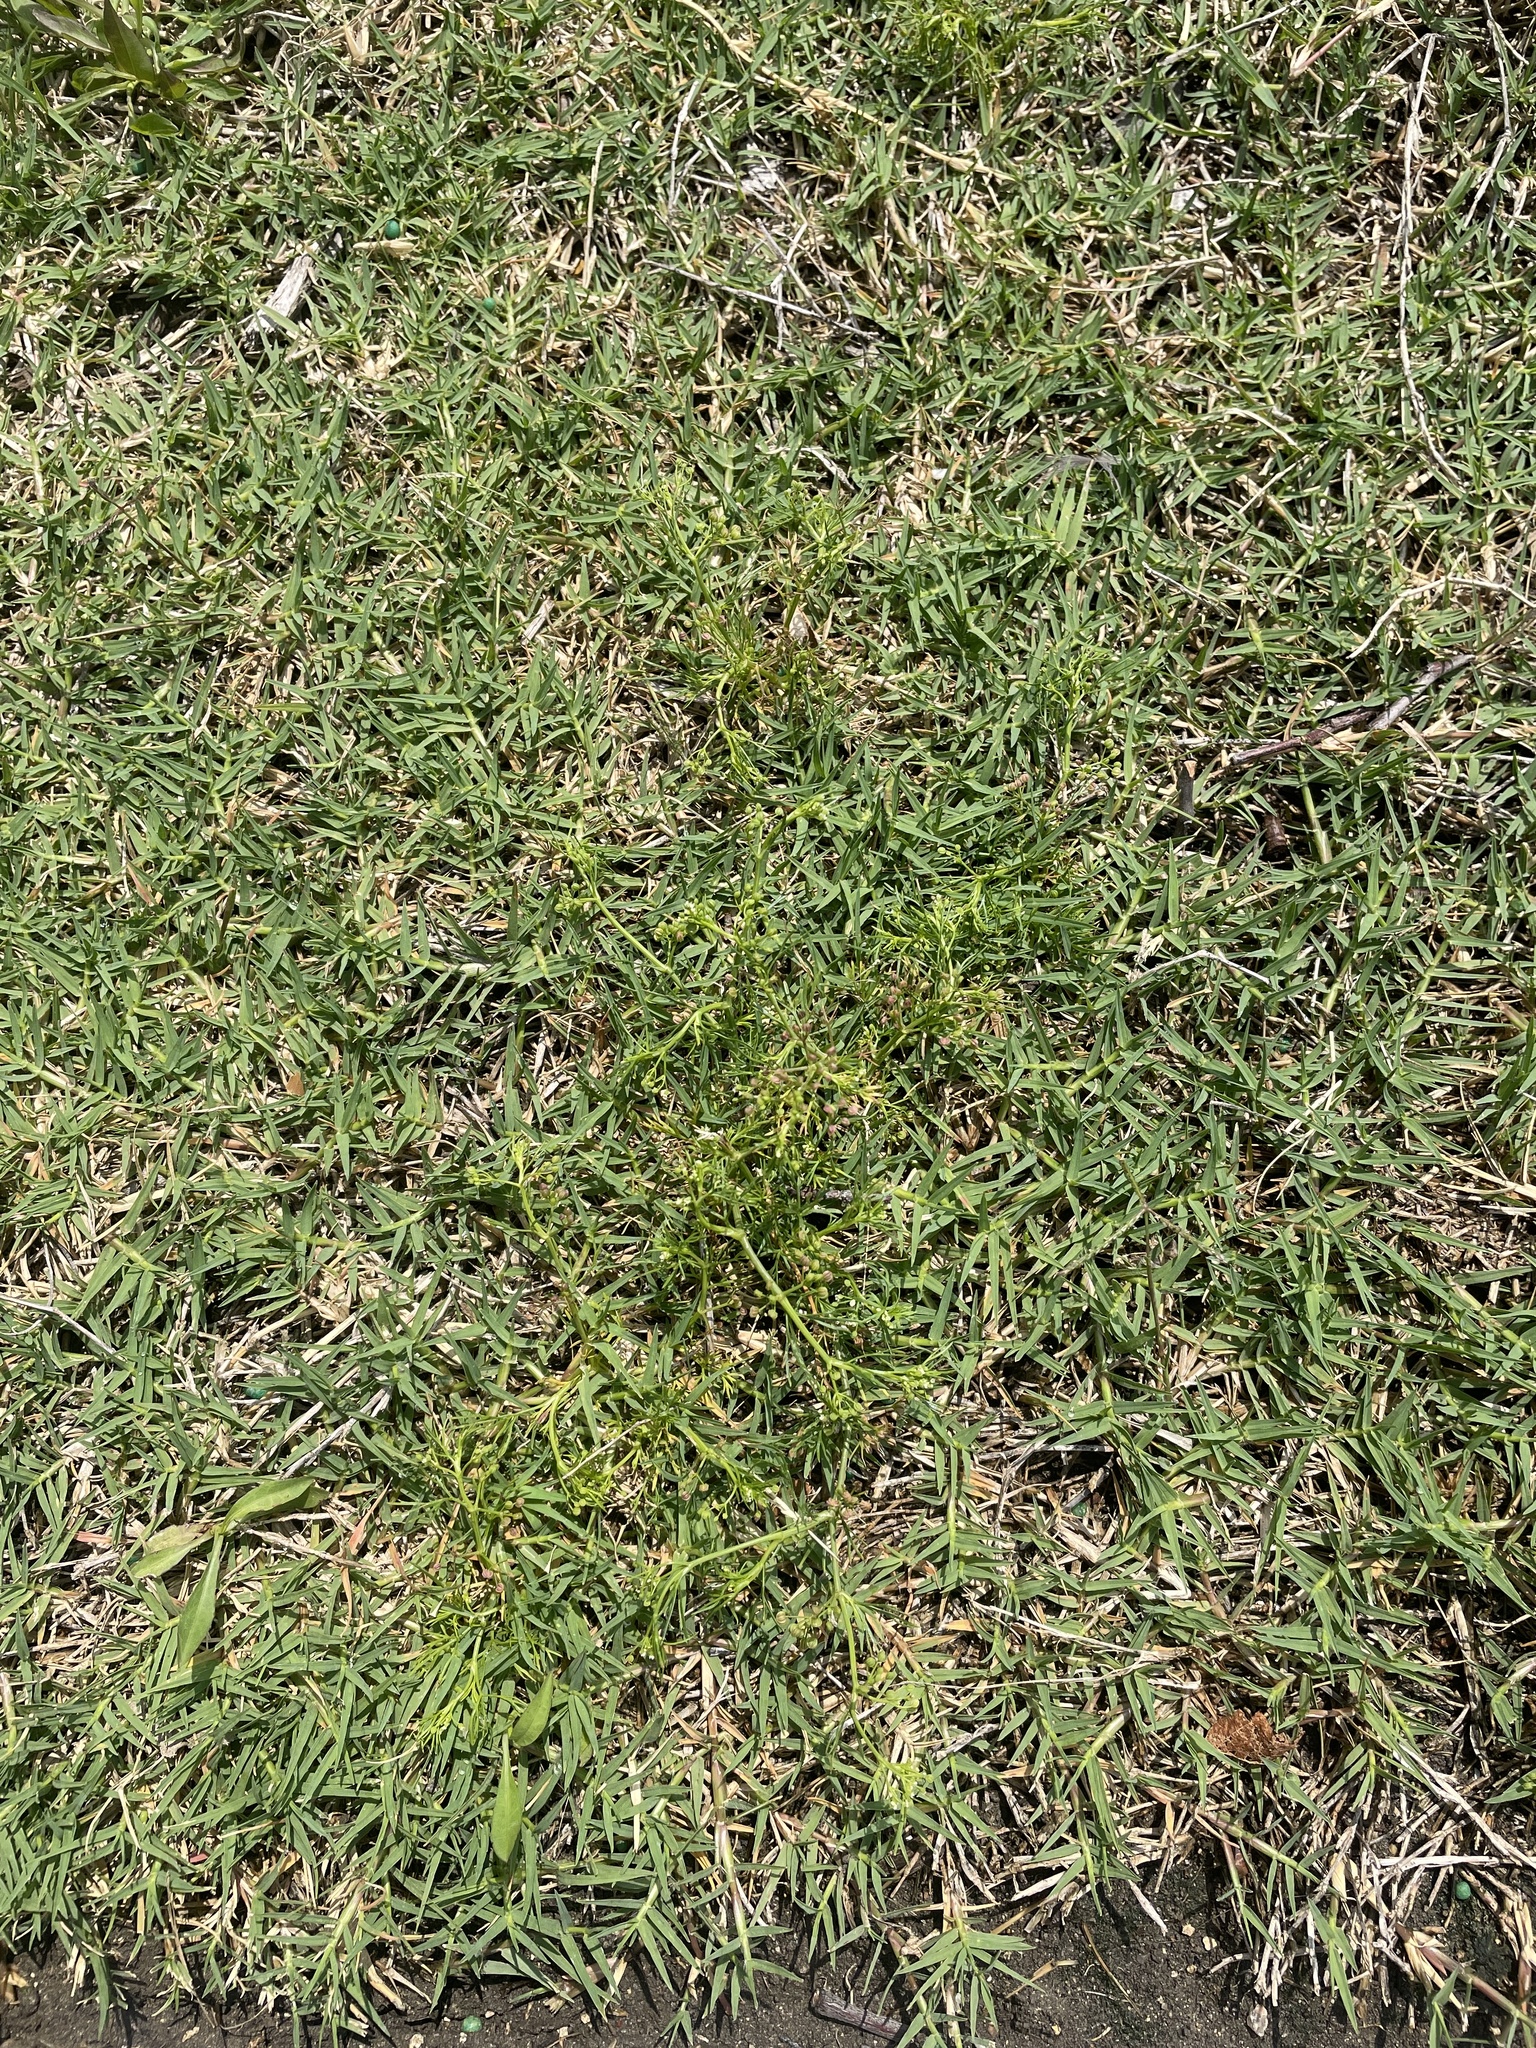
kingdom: Plantae
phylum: Tracheophyta
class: Magnoliopsida
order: Apiales
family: Apiaceae
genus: Cyclospermum
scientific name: Cyclospermum leptophyllum
